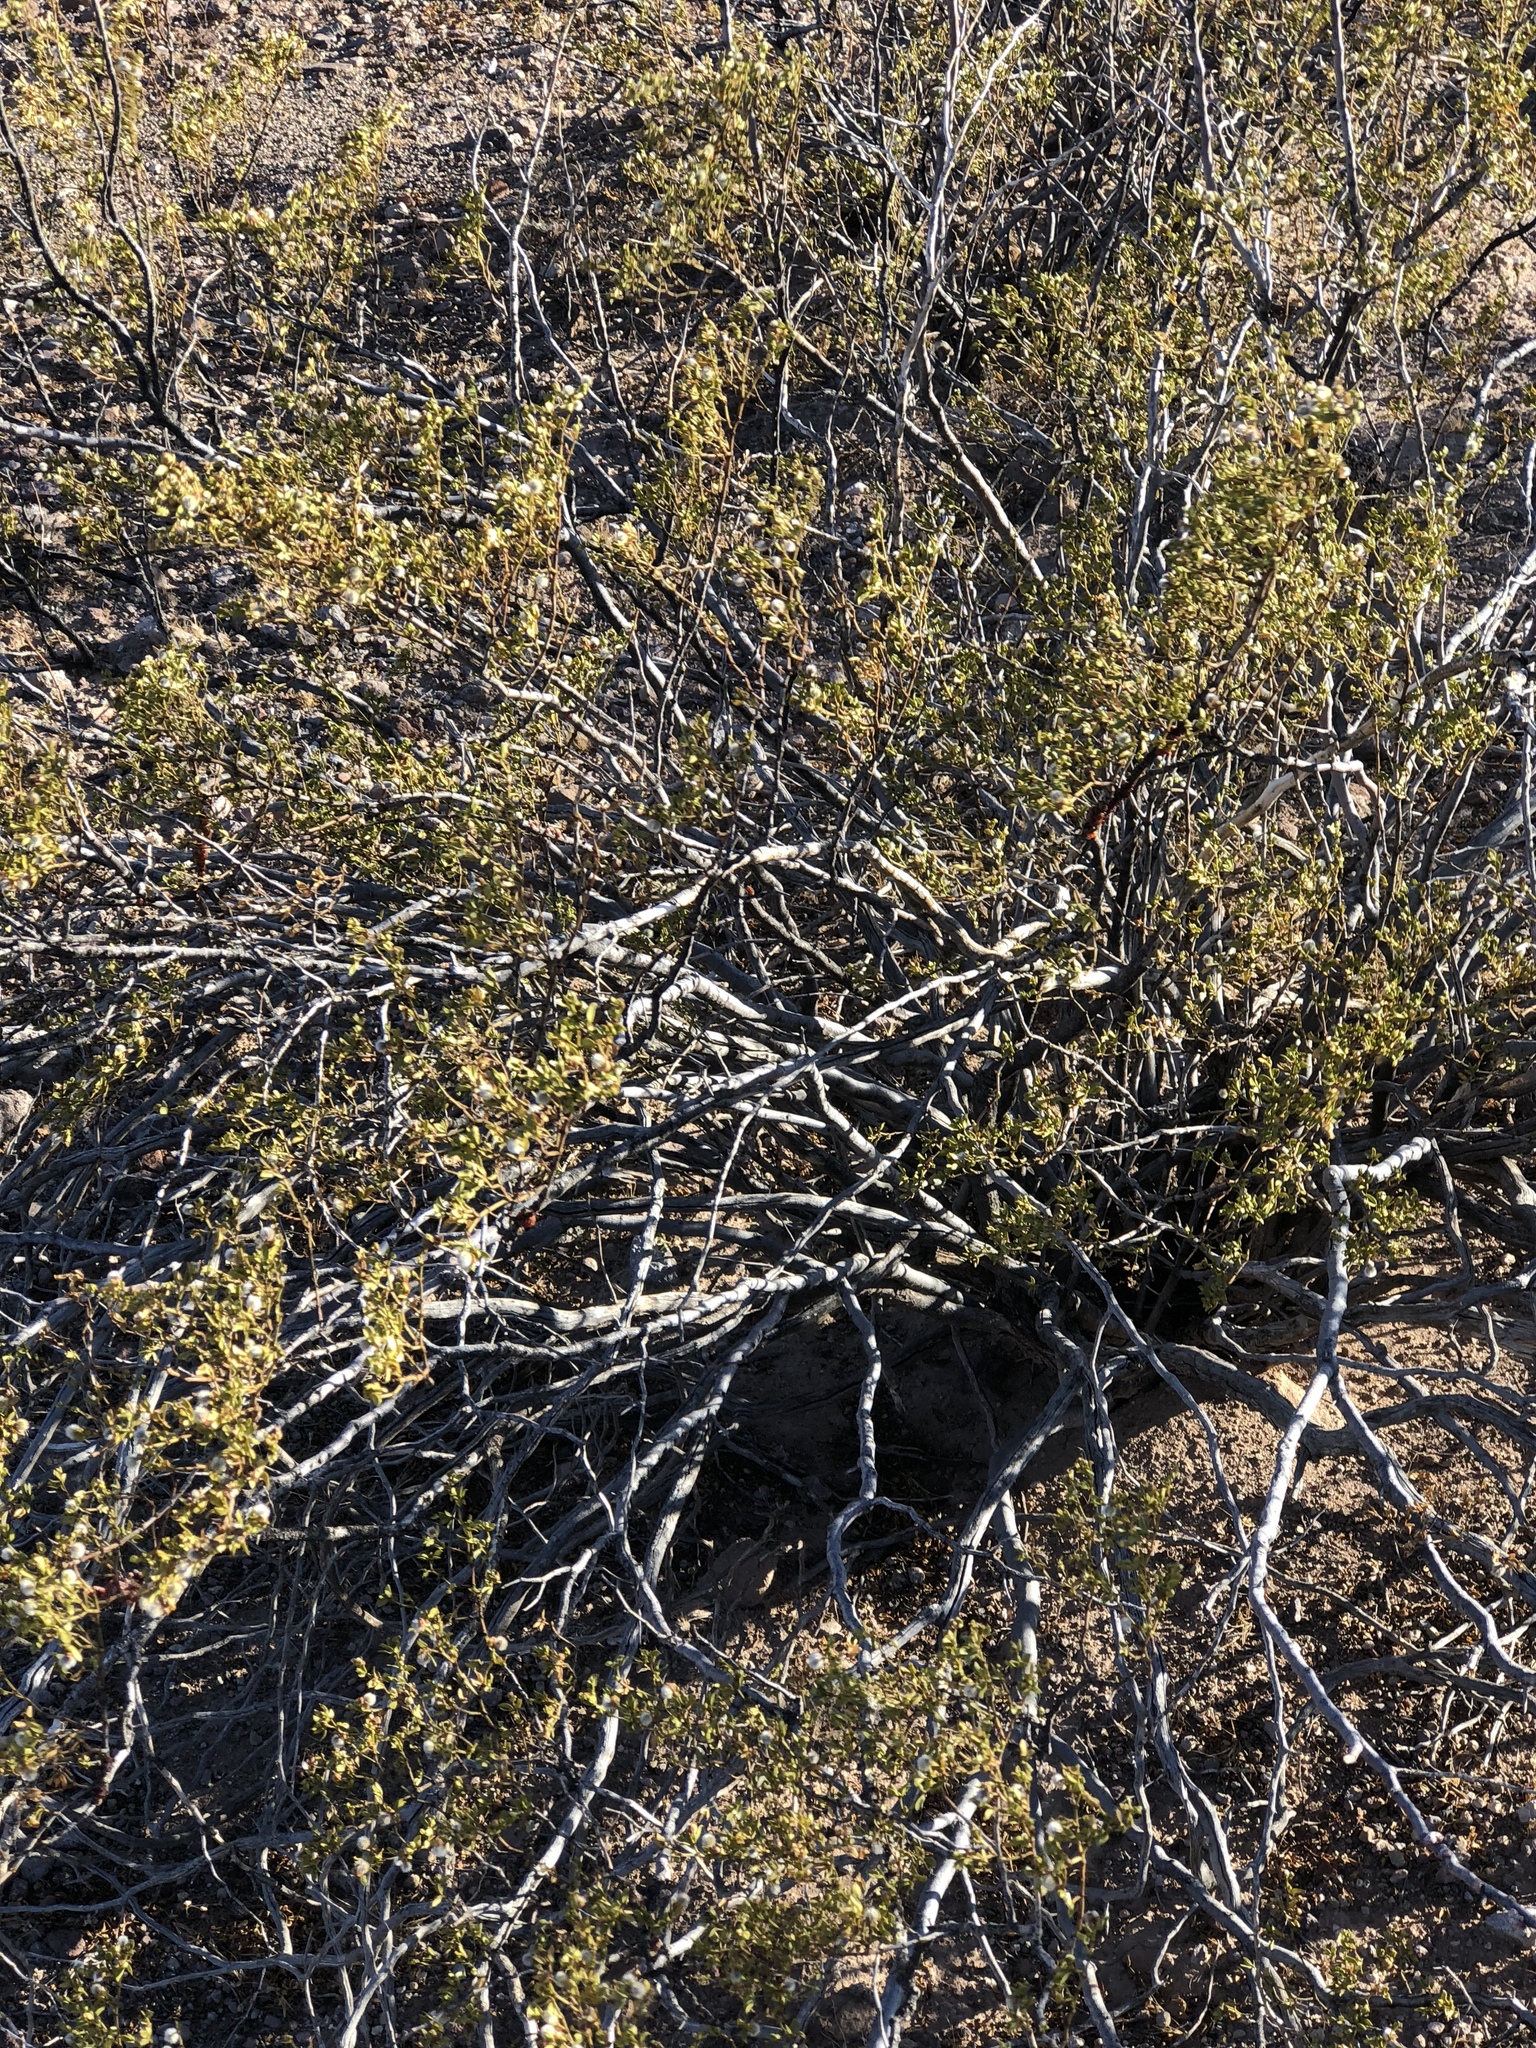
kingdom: Plantae
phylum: Tracheophyta
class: Magnoliopsida
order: Zygophyllales
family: Zygophyllaceae
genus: Larrea
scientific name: Larrea tridentata
